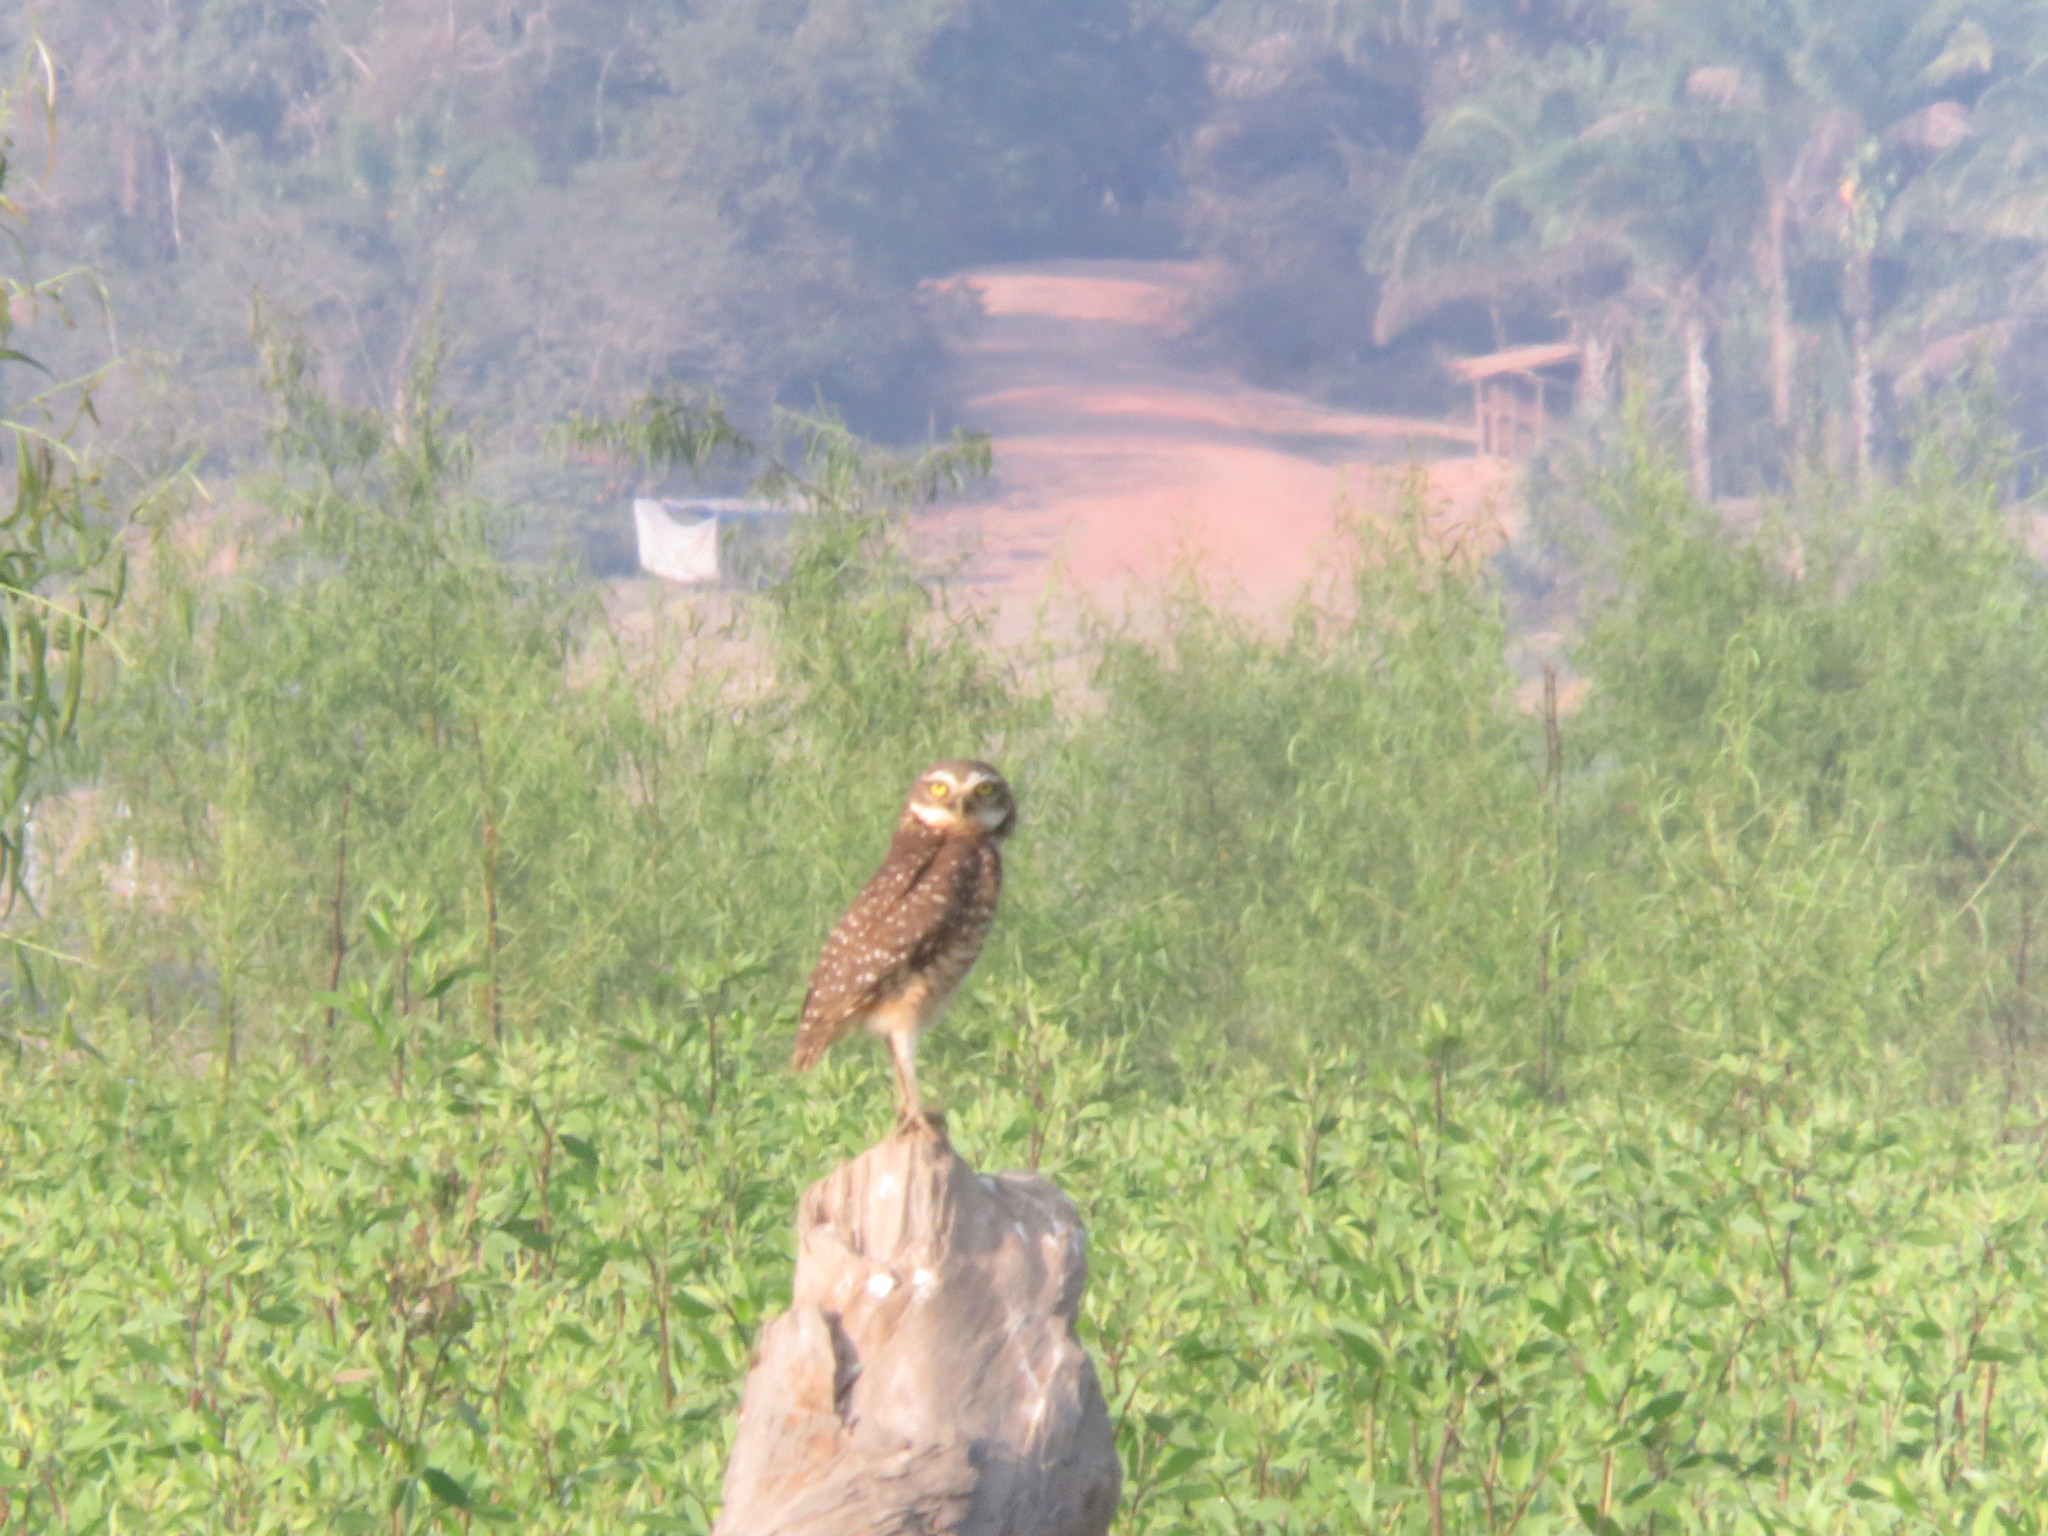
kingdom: Animalia
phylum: Chordata
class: Aves
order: Strigiformes
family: Strigidae
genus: Athene
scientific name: Athene cunicularia
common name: Burrowing owl
